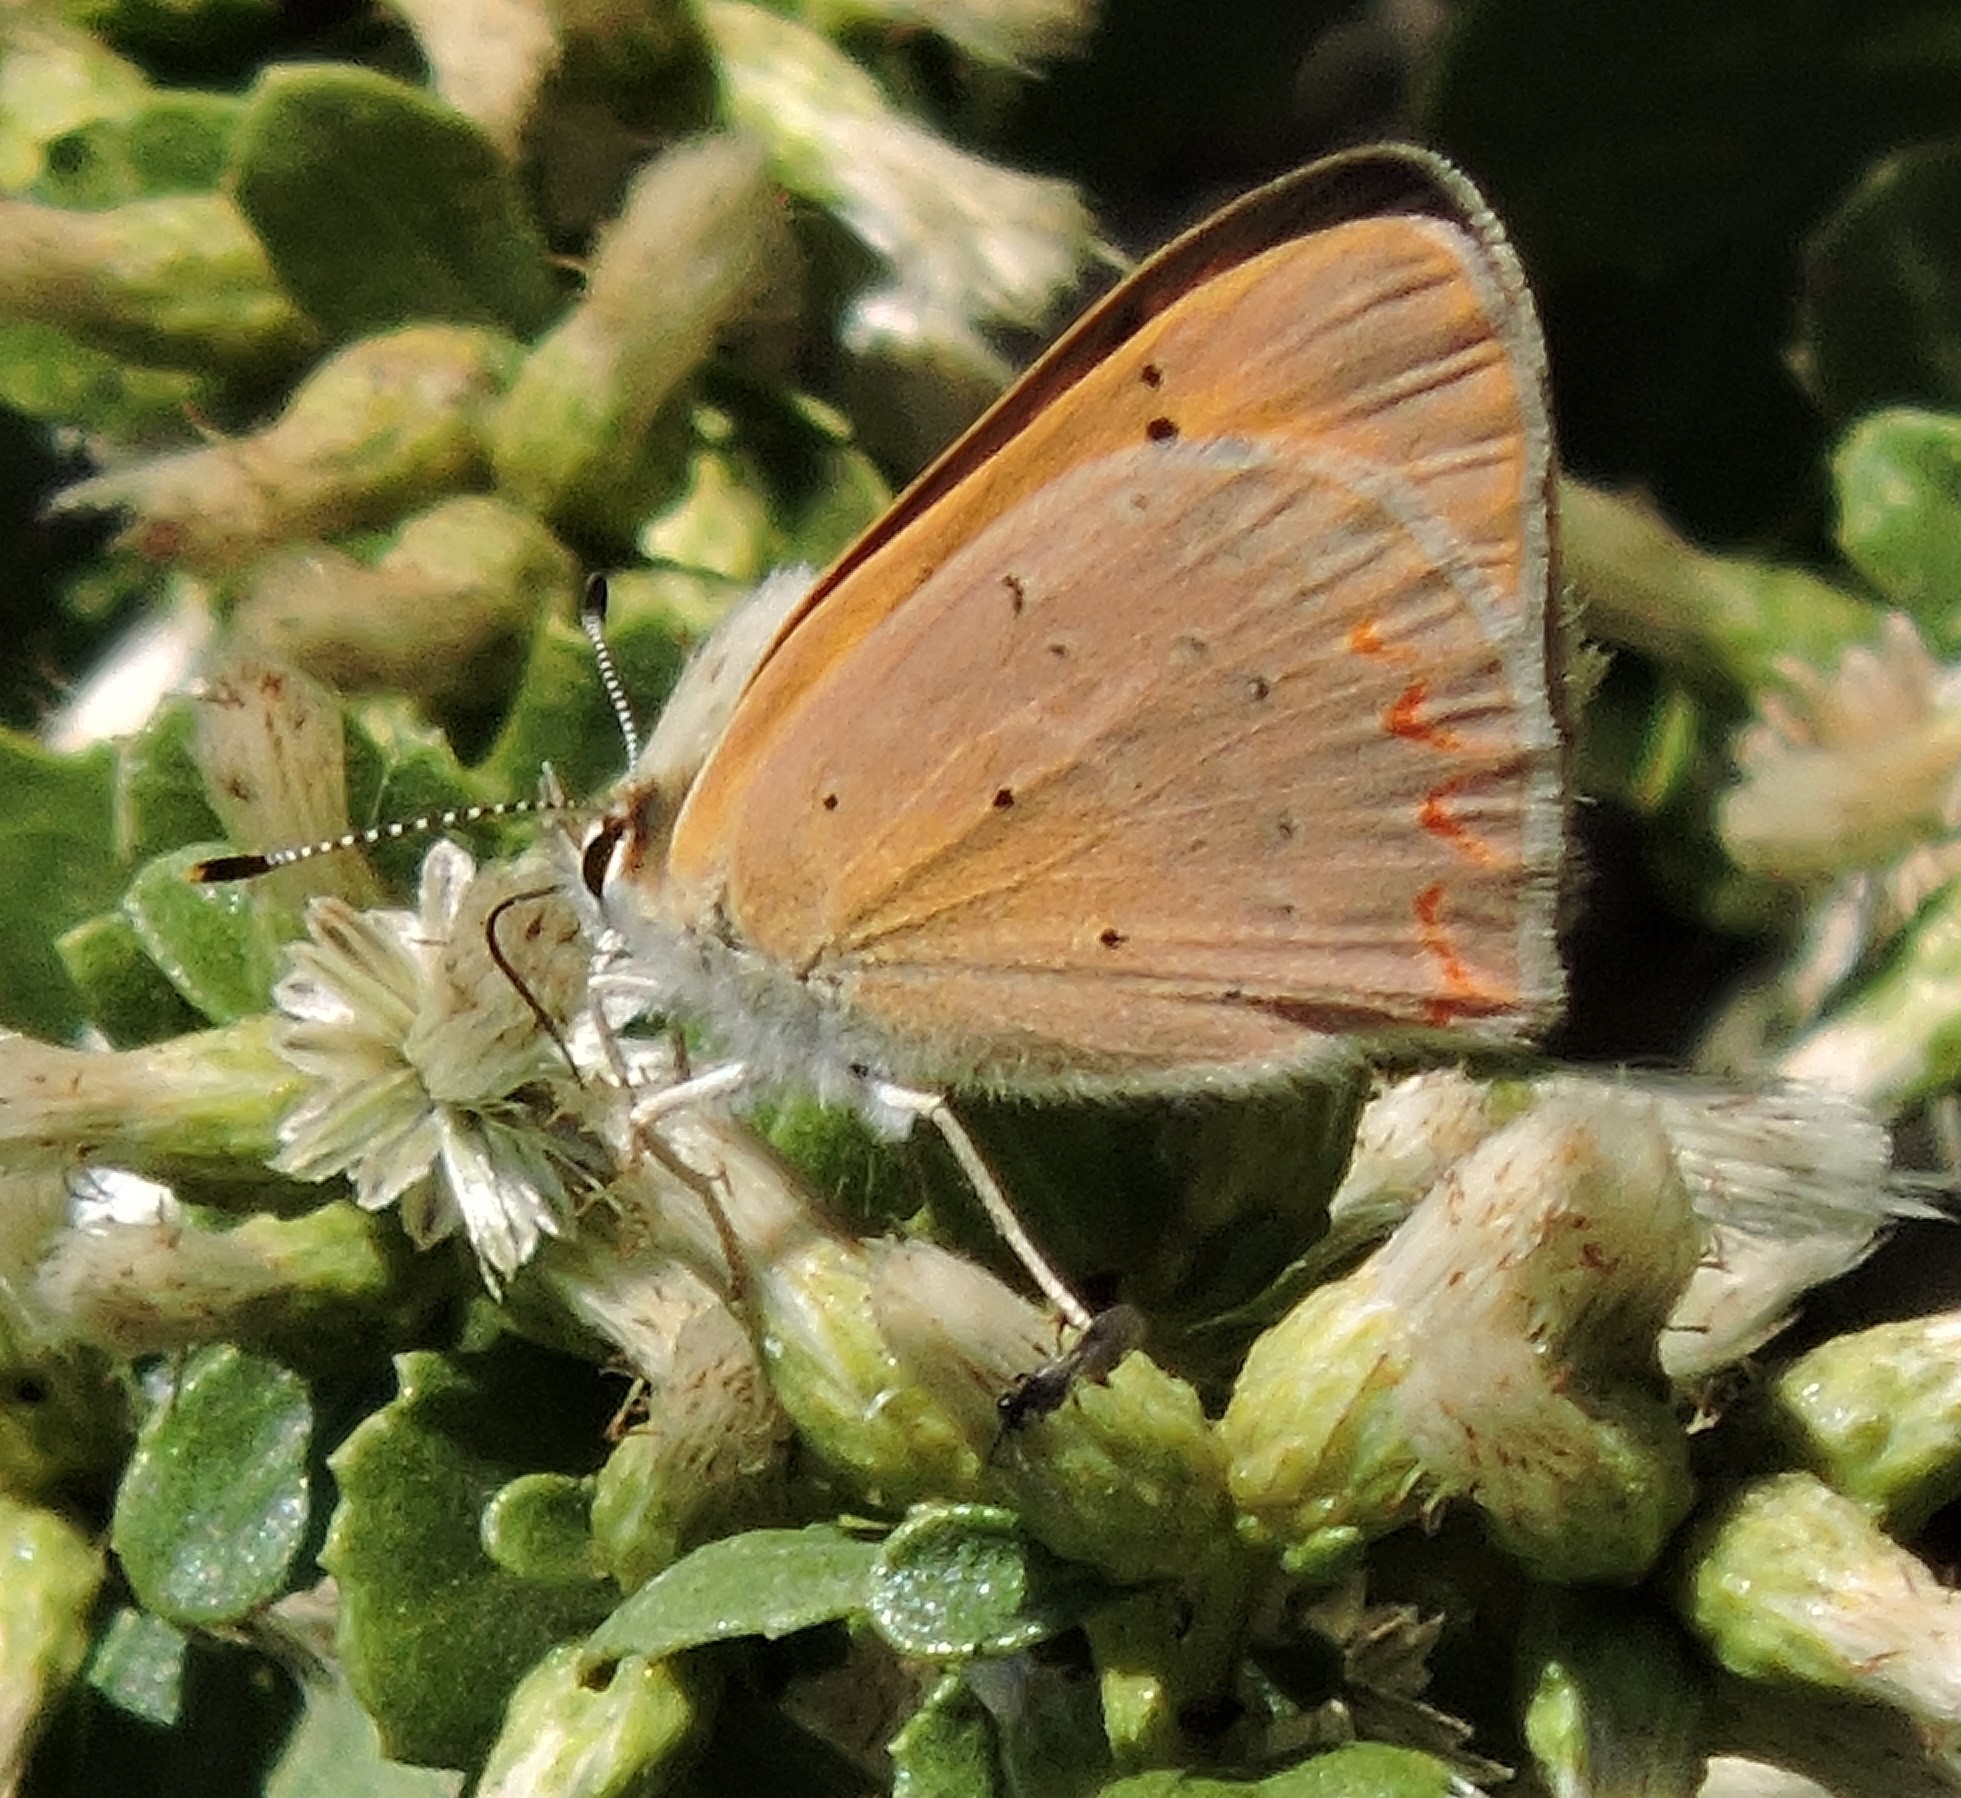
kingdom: Animalia
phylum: Arthropoda
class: Insecta
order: Lepidoptera
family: Lycaenidae
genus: Tharsalea
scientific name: Tharsalea helloides
